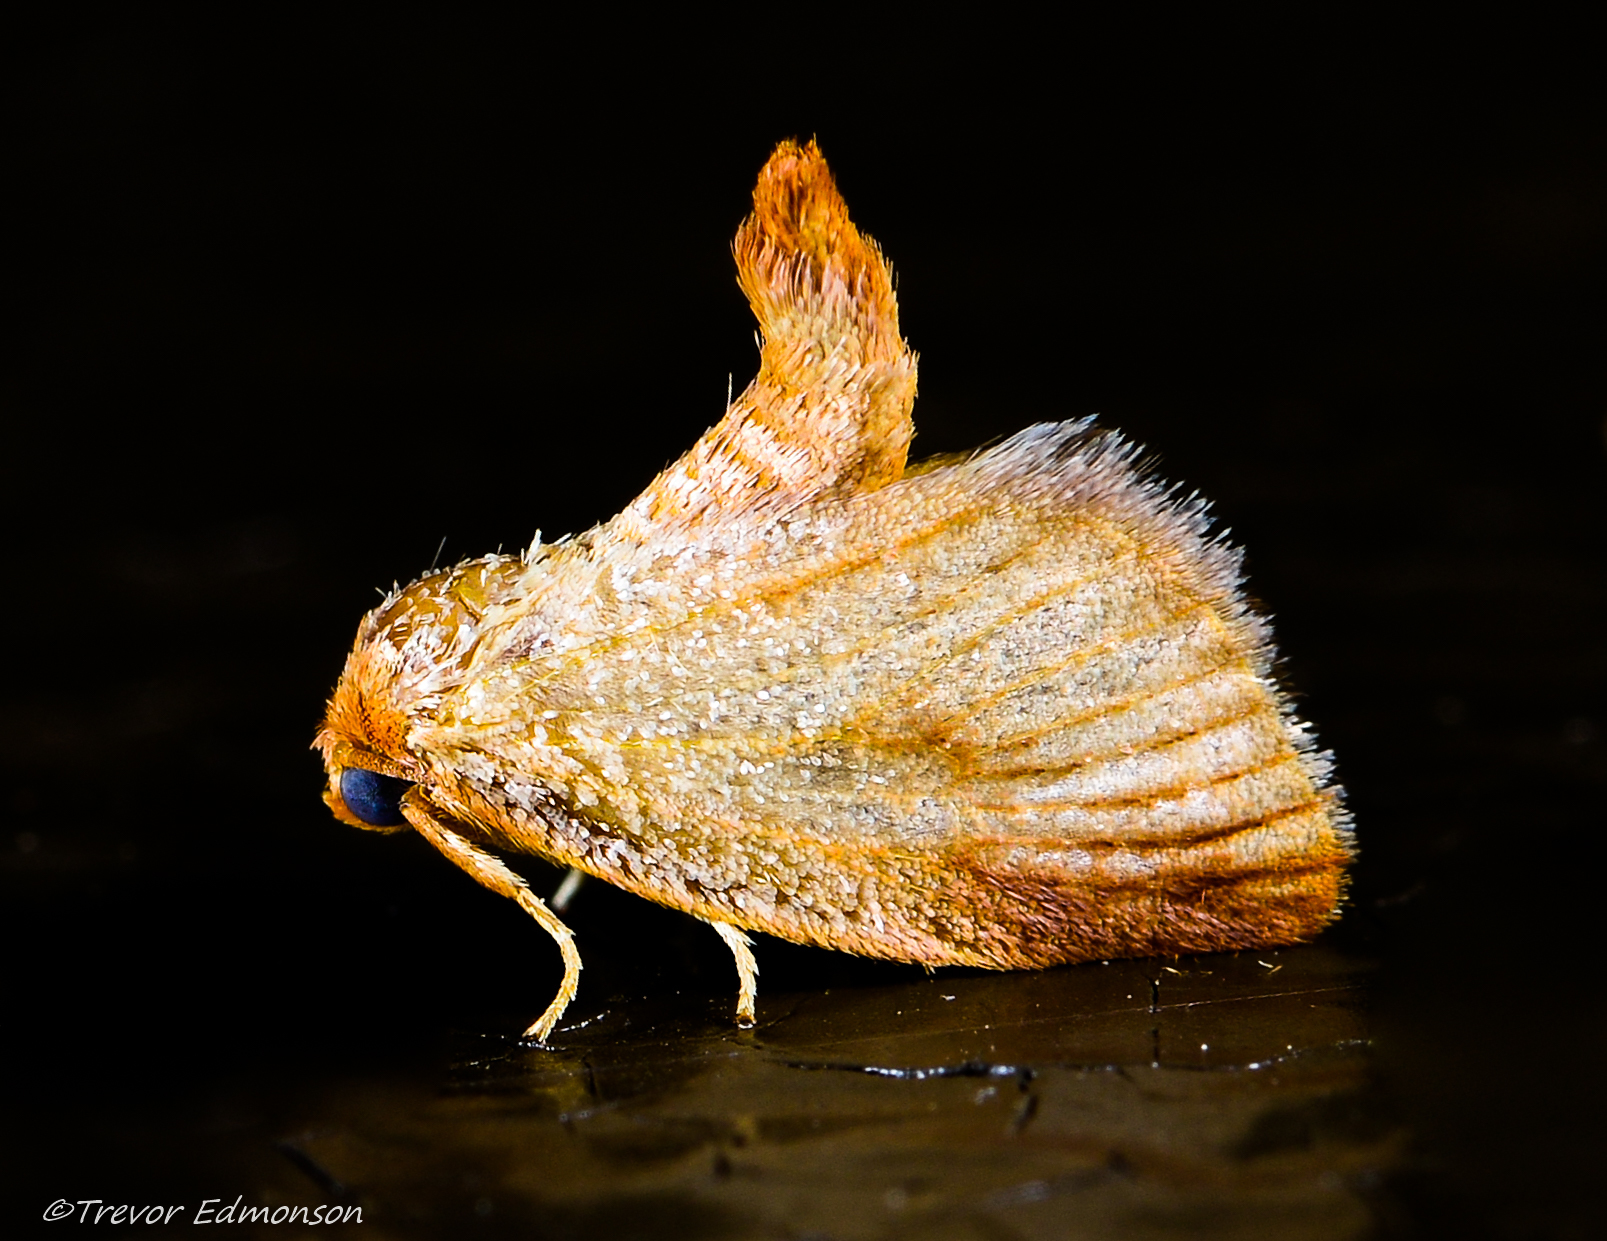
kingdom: Animalia
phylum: Arthropoda
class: Insecta
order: Lepidoptera
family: Limacodidae
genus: Tortricidia
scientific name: Tortricidia testacea
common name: Early button slug moth
